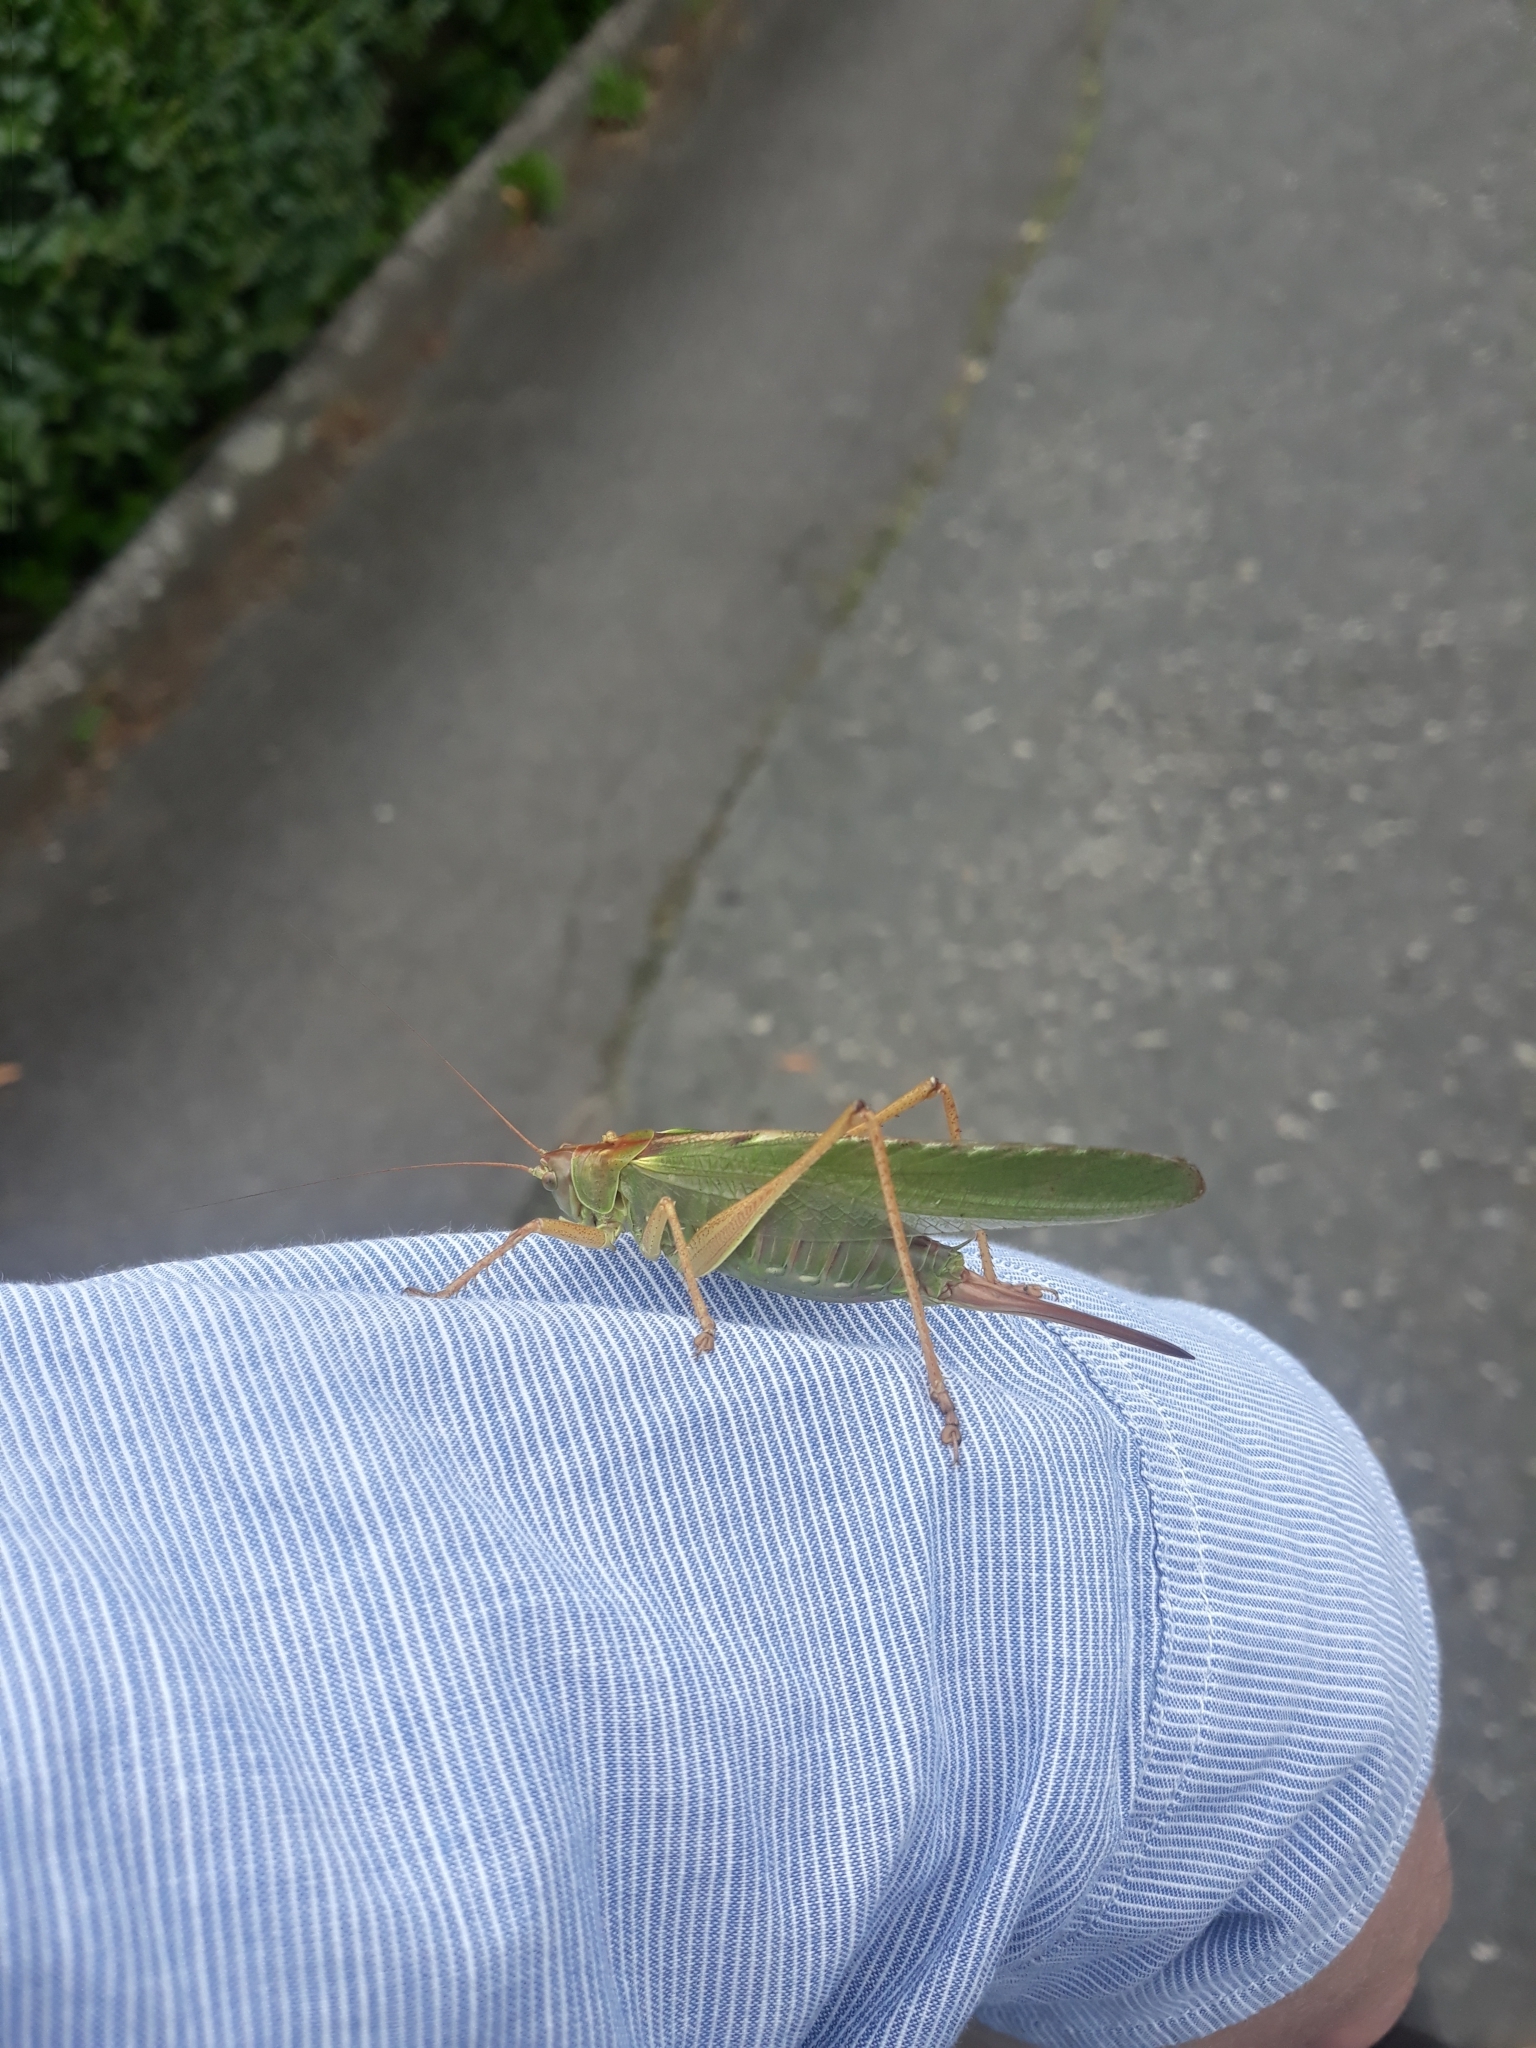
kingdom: Animalia
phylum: Arthropoda
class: Insecta
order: Orthoptera
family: Tettigoniidae
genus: Tettigonia
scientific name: Tettigonia viridissima
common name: Great green bush-cricket
